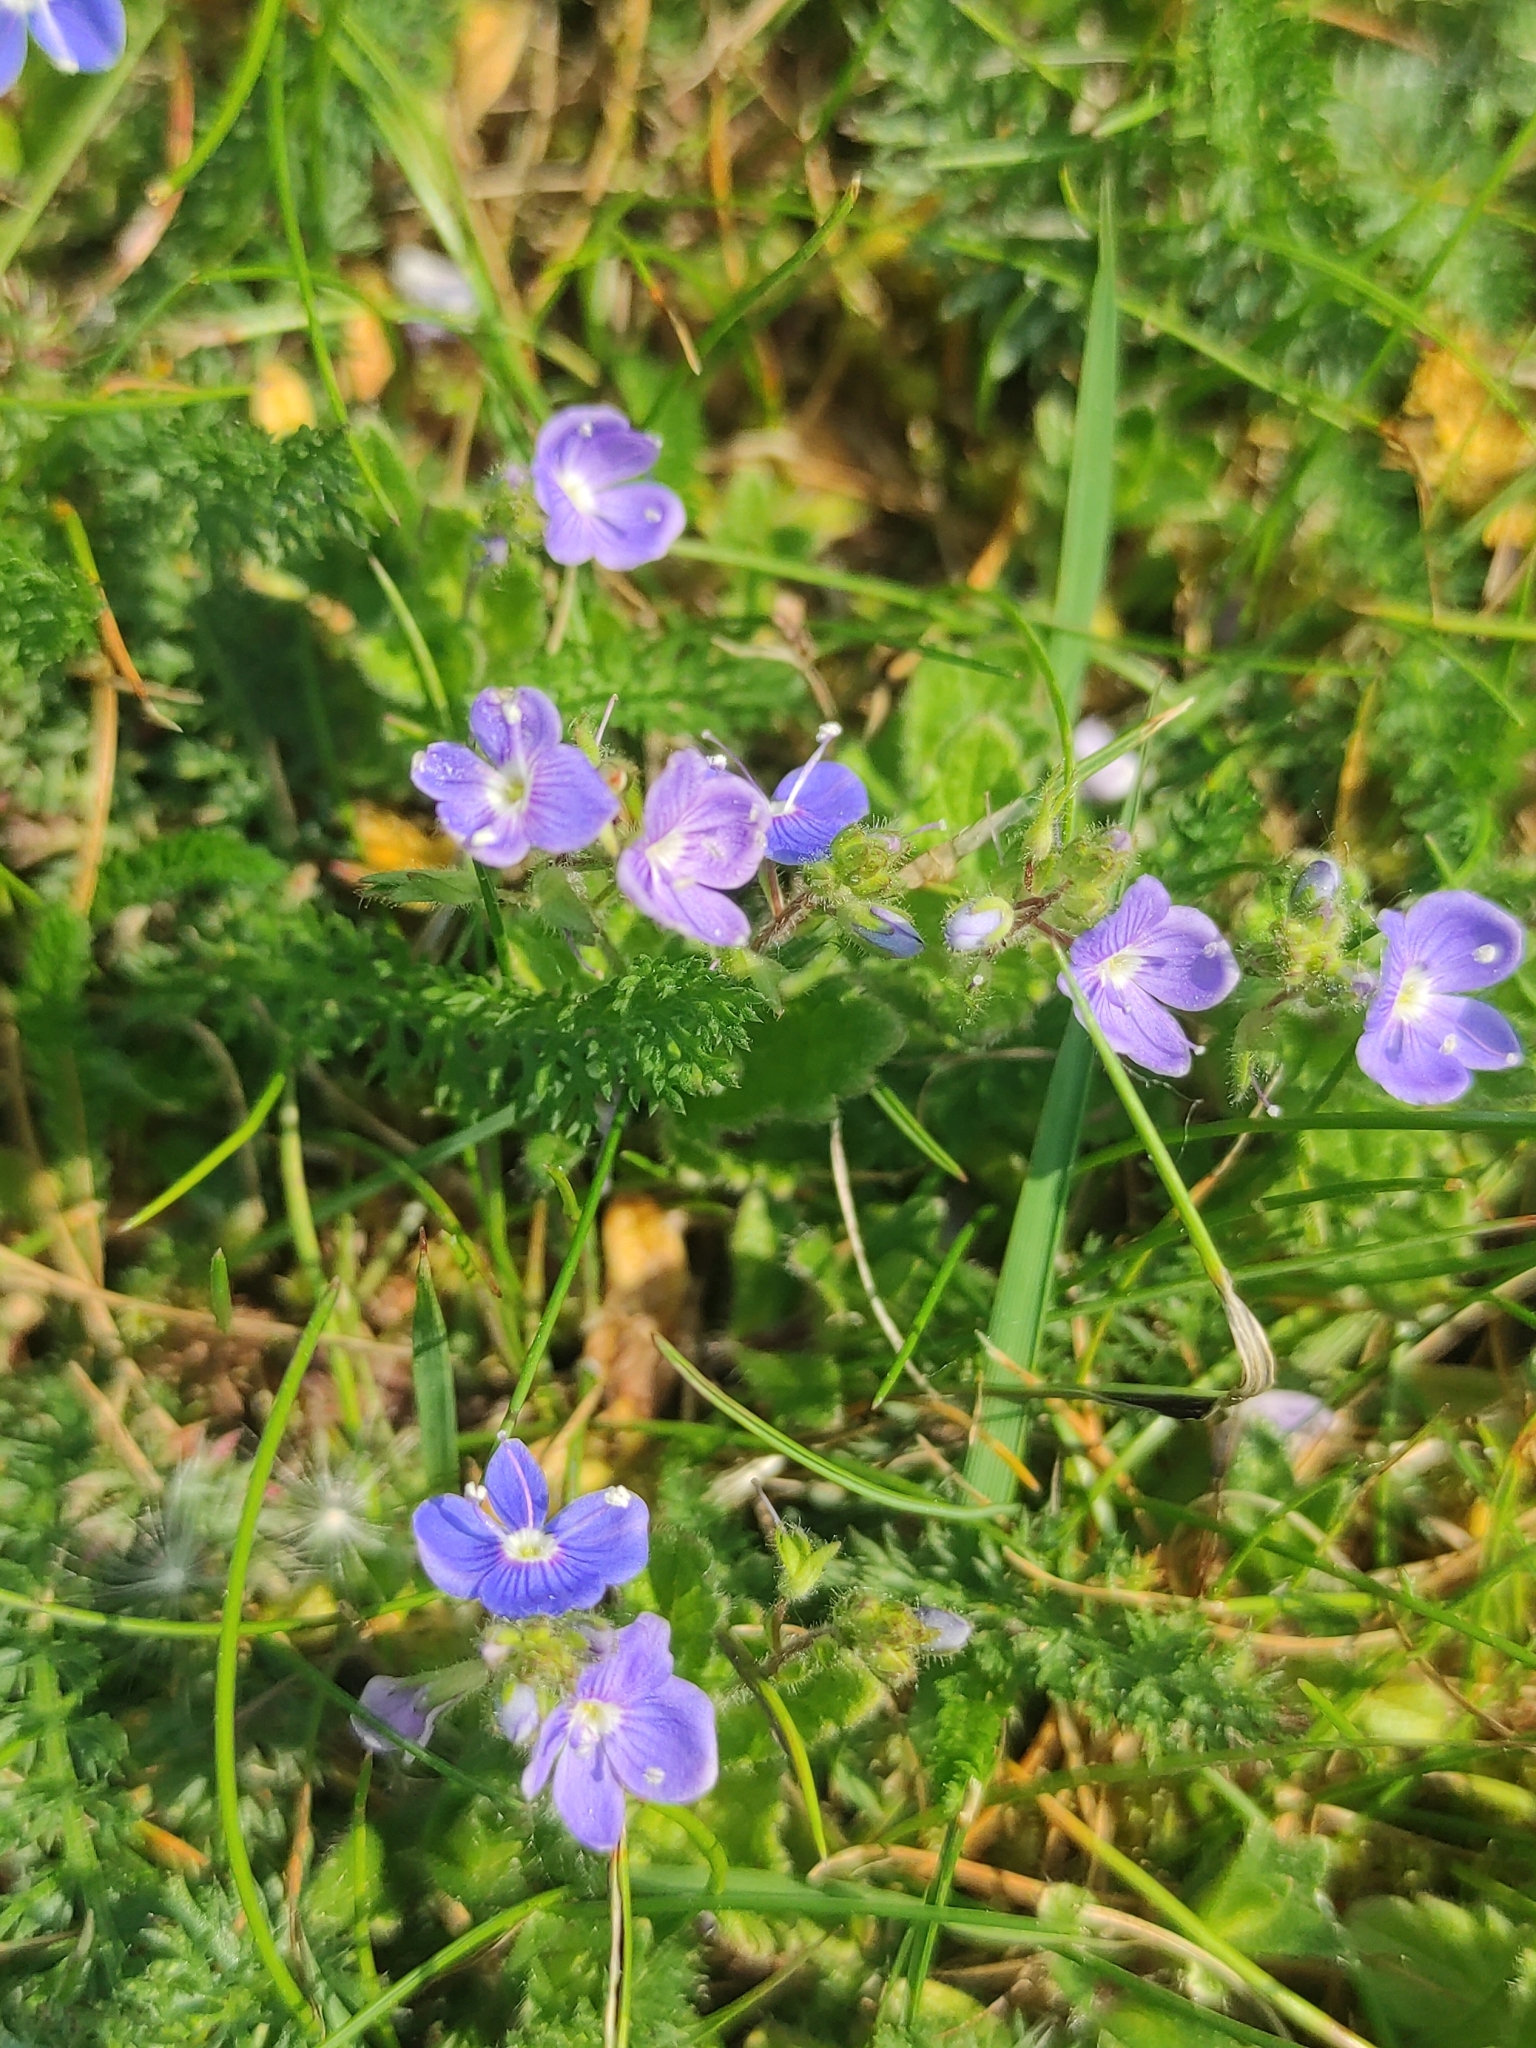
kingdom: Plantae
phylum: Tracheophyta
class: Magnoliopsida
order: Lamiales
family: Plantaginaceae
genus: Veronica
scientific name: Veronica chamaedrys
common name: Germander speedwell
